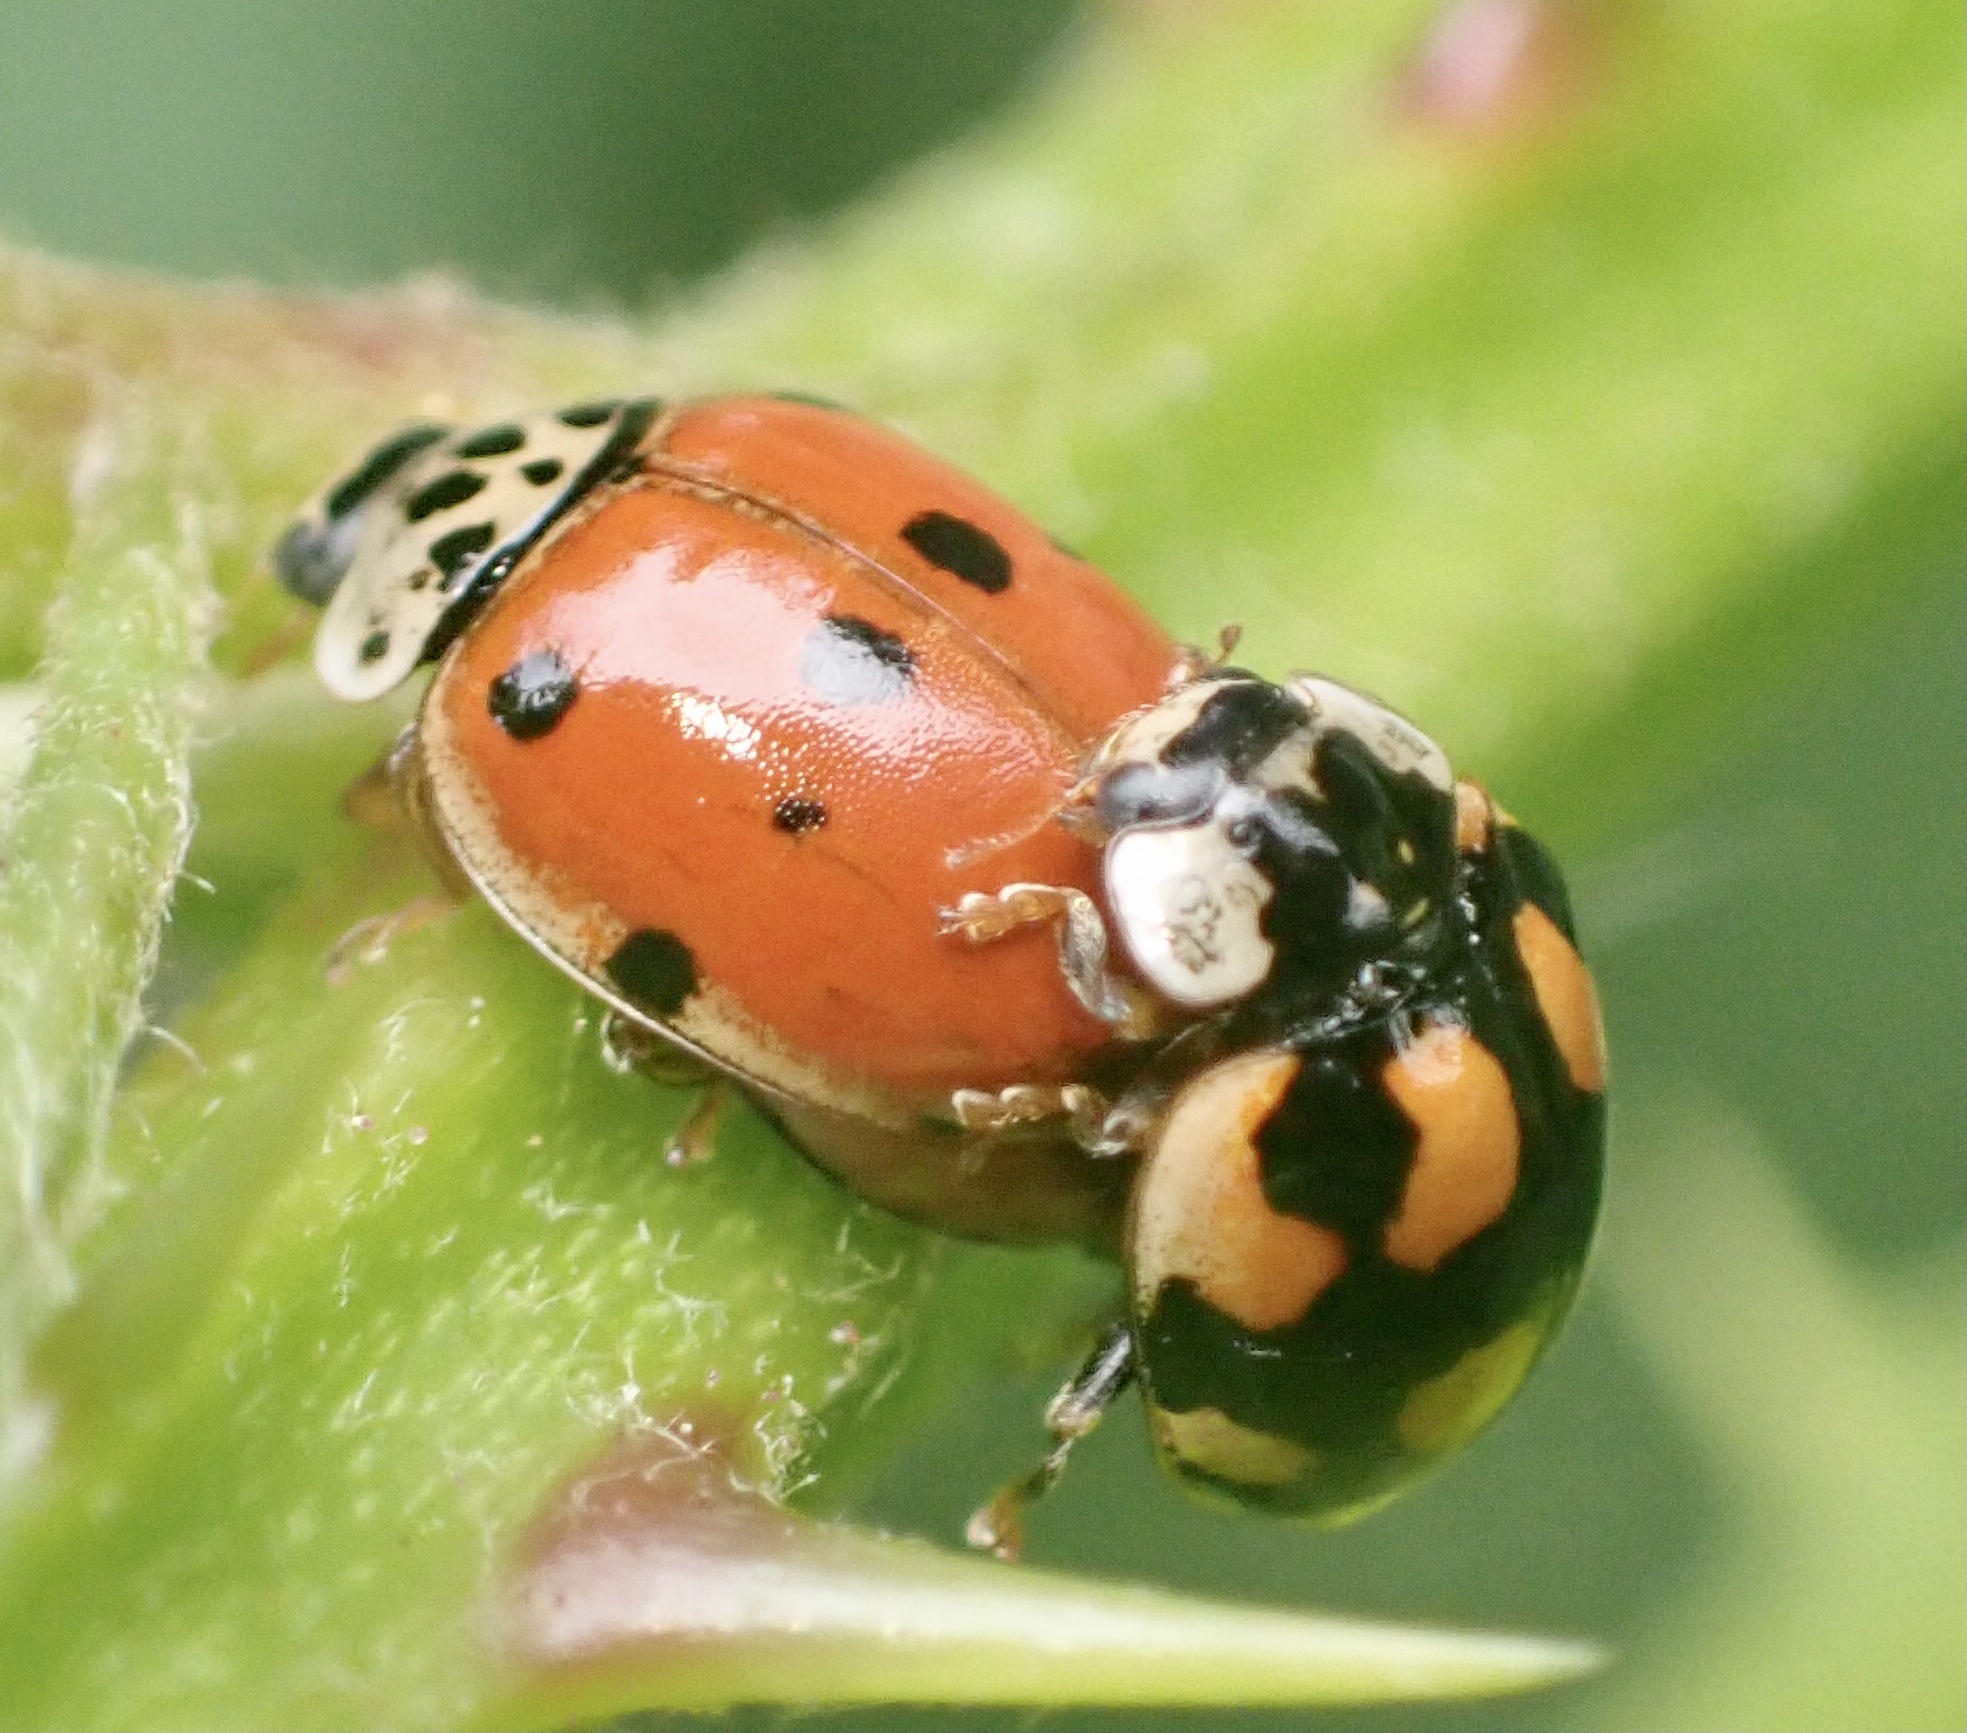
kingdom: Animalia
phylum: Arthropoda
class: Insecta
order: Coleoptera
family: Coccinellidae
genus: Adalia
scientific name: Adalia decempunctata
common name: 10-spot ladybird
